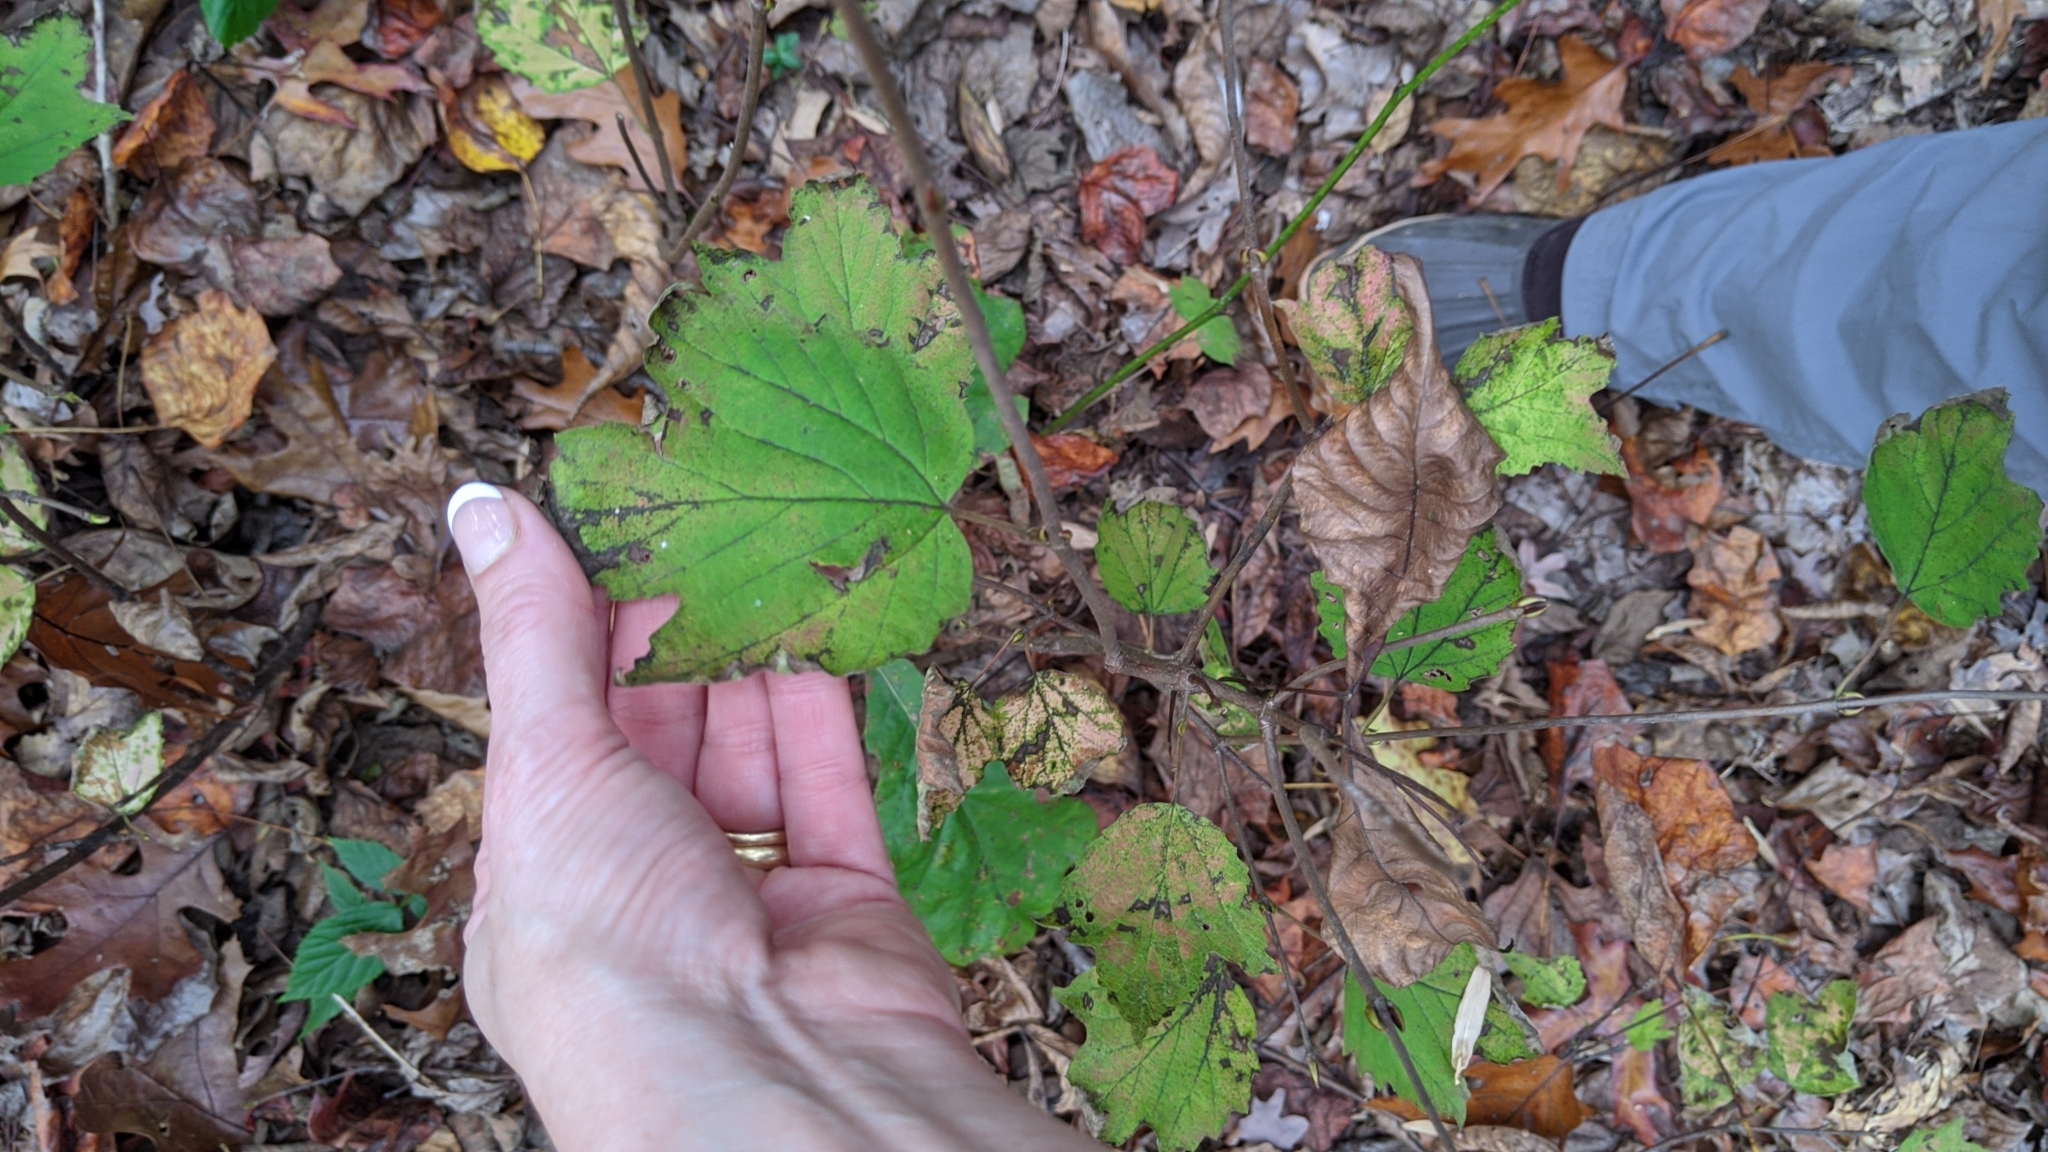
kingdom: Plantae
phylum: Tracheophyta
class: Magnoliopsida
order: Dipsacales
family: Viburnaceae
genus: Viburnum
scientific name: Viburnum acerifolium
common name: Dockmackie
